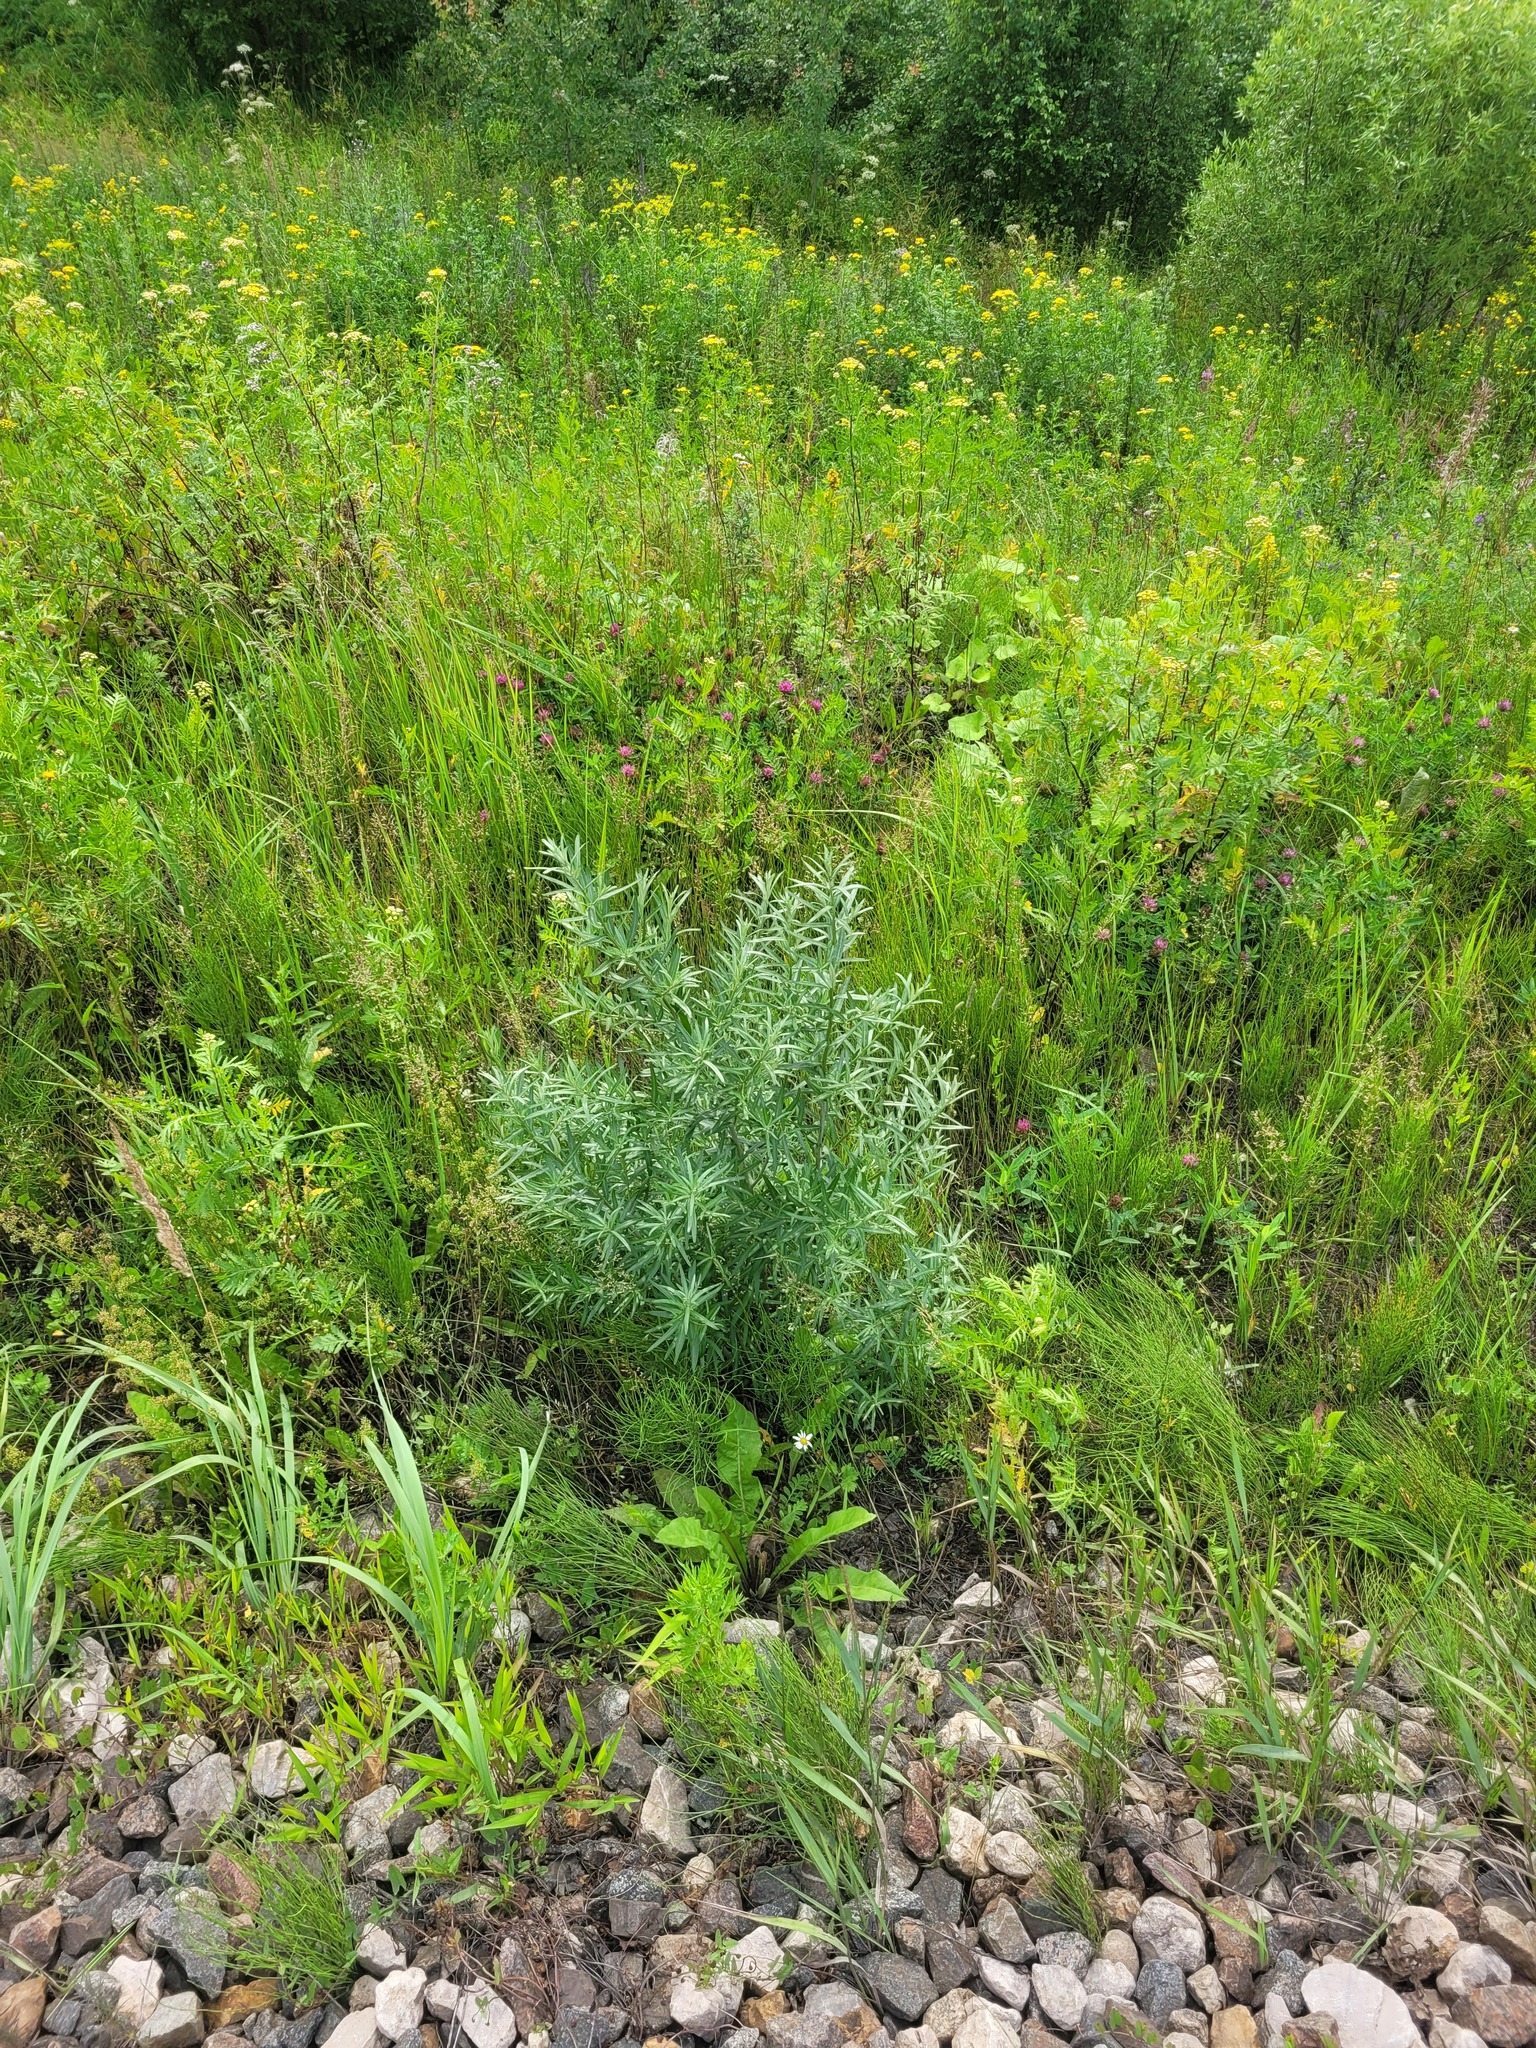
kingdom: Plantae
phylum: Tracheophyta
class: Magnoliopsida
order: Rosales
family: Elaeagnaceae
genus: Hippophae
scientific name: Hippophae rhamnoides
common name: Sea-buckthorn
